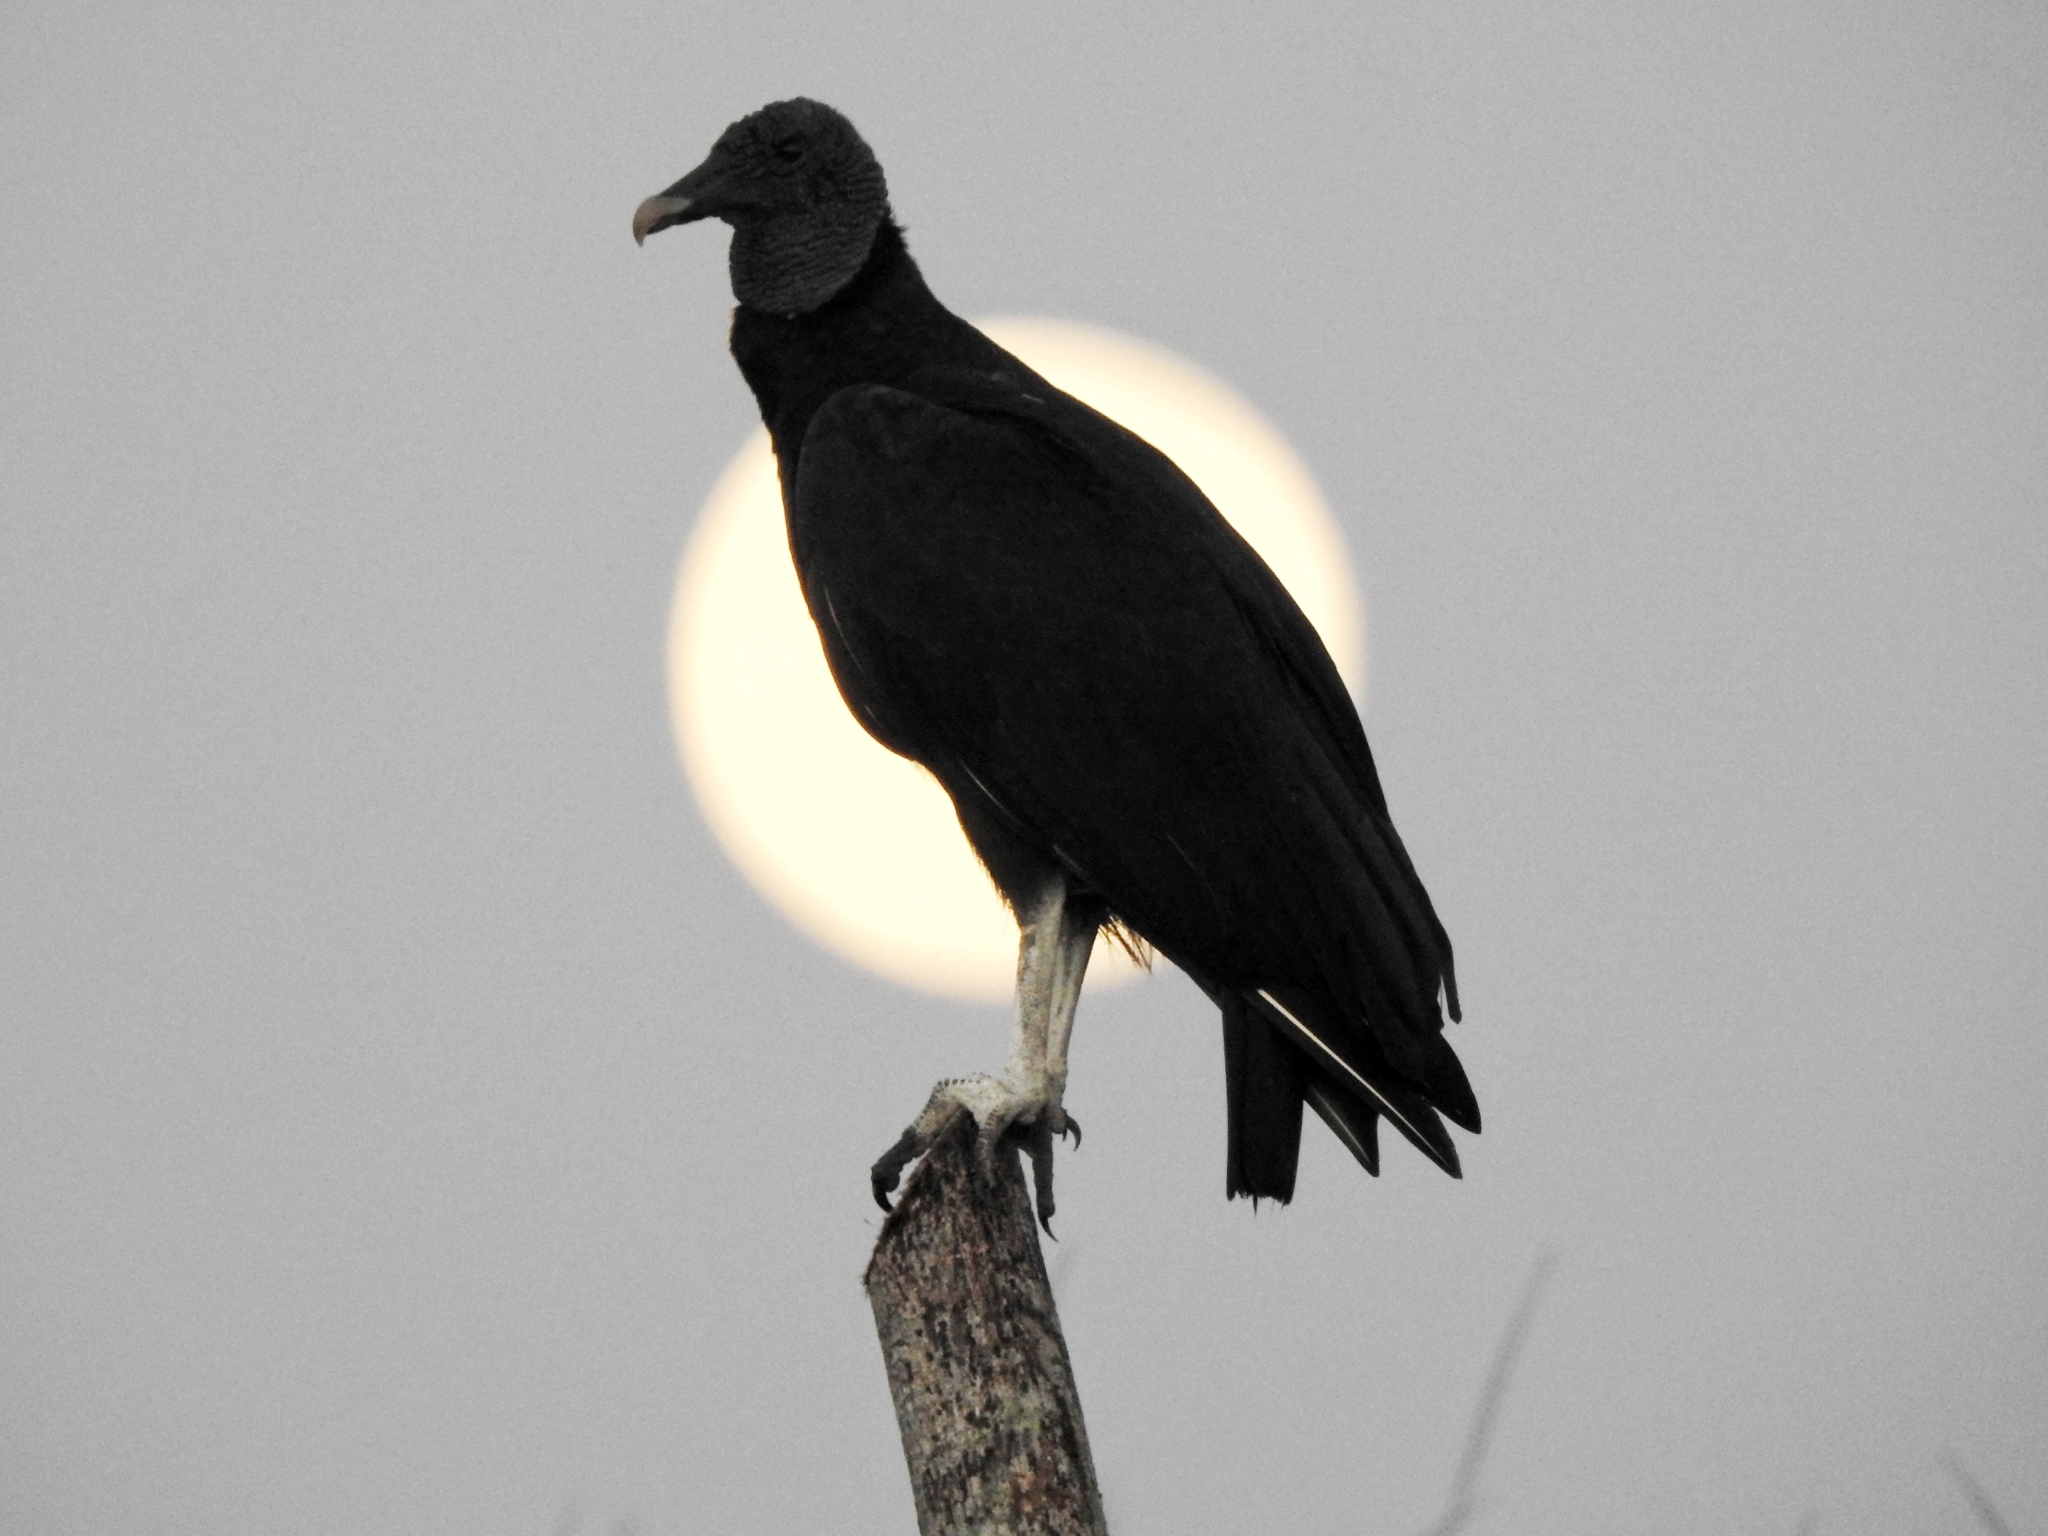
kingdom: Animalia
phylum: Chordata
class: Aves
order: Accipitriformes
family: Cathartidae
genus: Coragyps
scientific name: Coragyps atratus
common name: Black vulture
